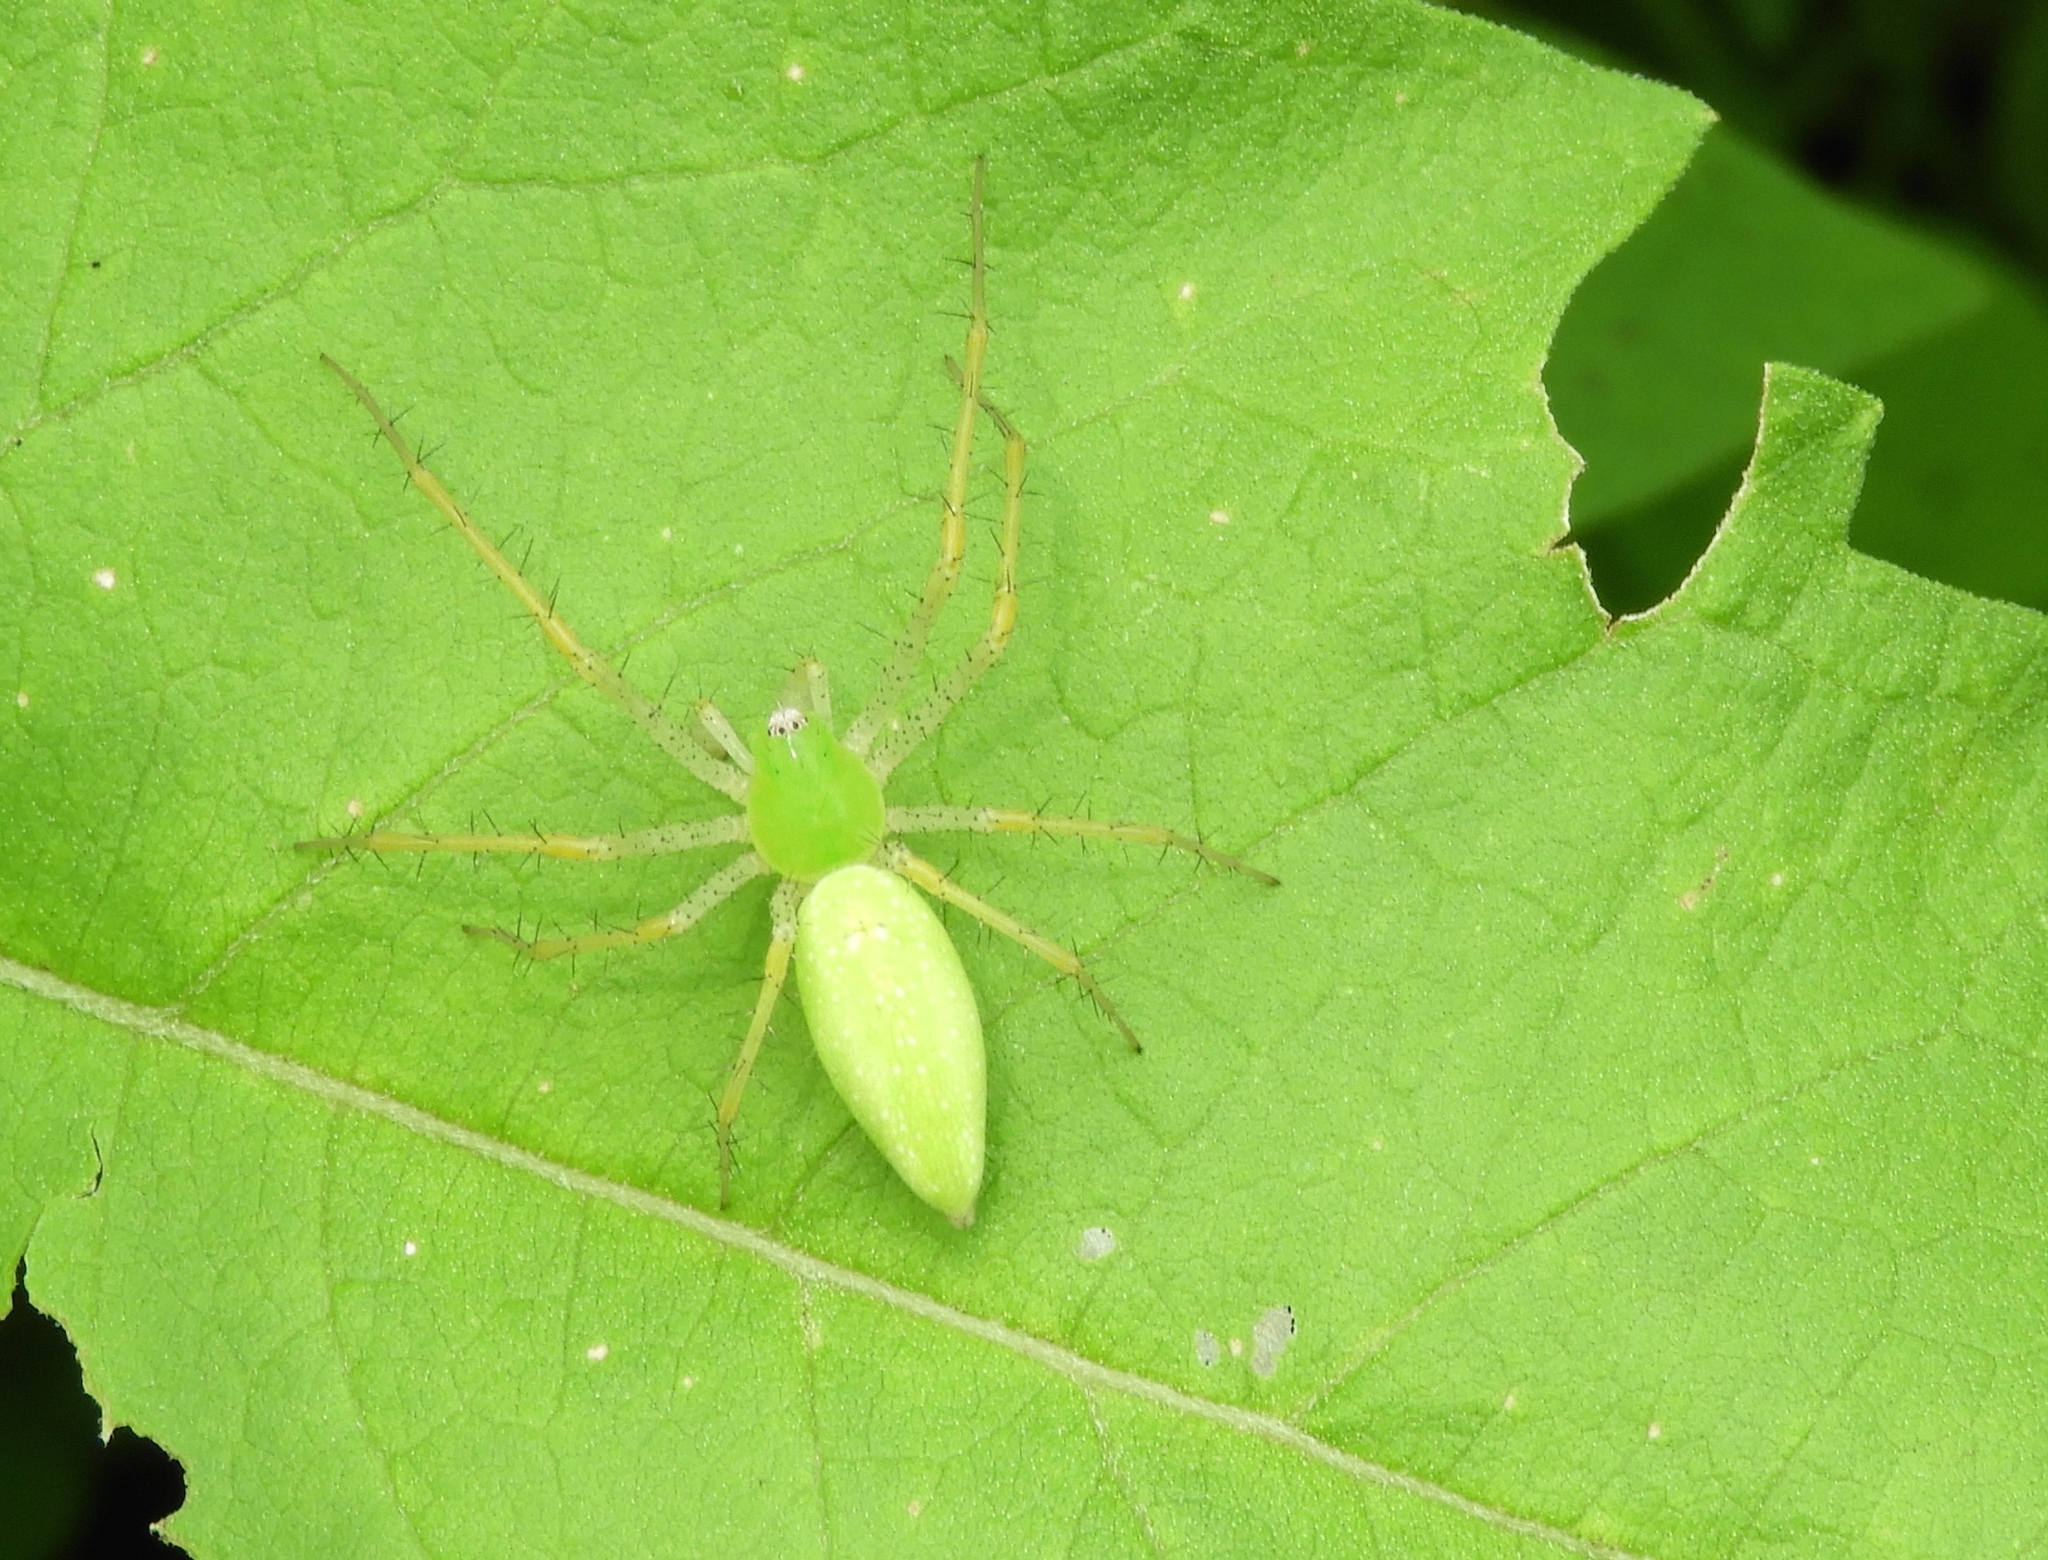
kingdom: Animalia
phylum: Arthropoda
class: Arachnida
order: Araneae
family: Oxyopidae
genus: Peucetia
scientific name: Peucetia longipalpis
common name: Lynx spiders
